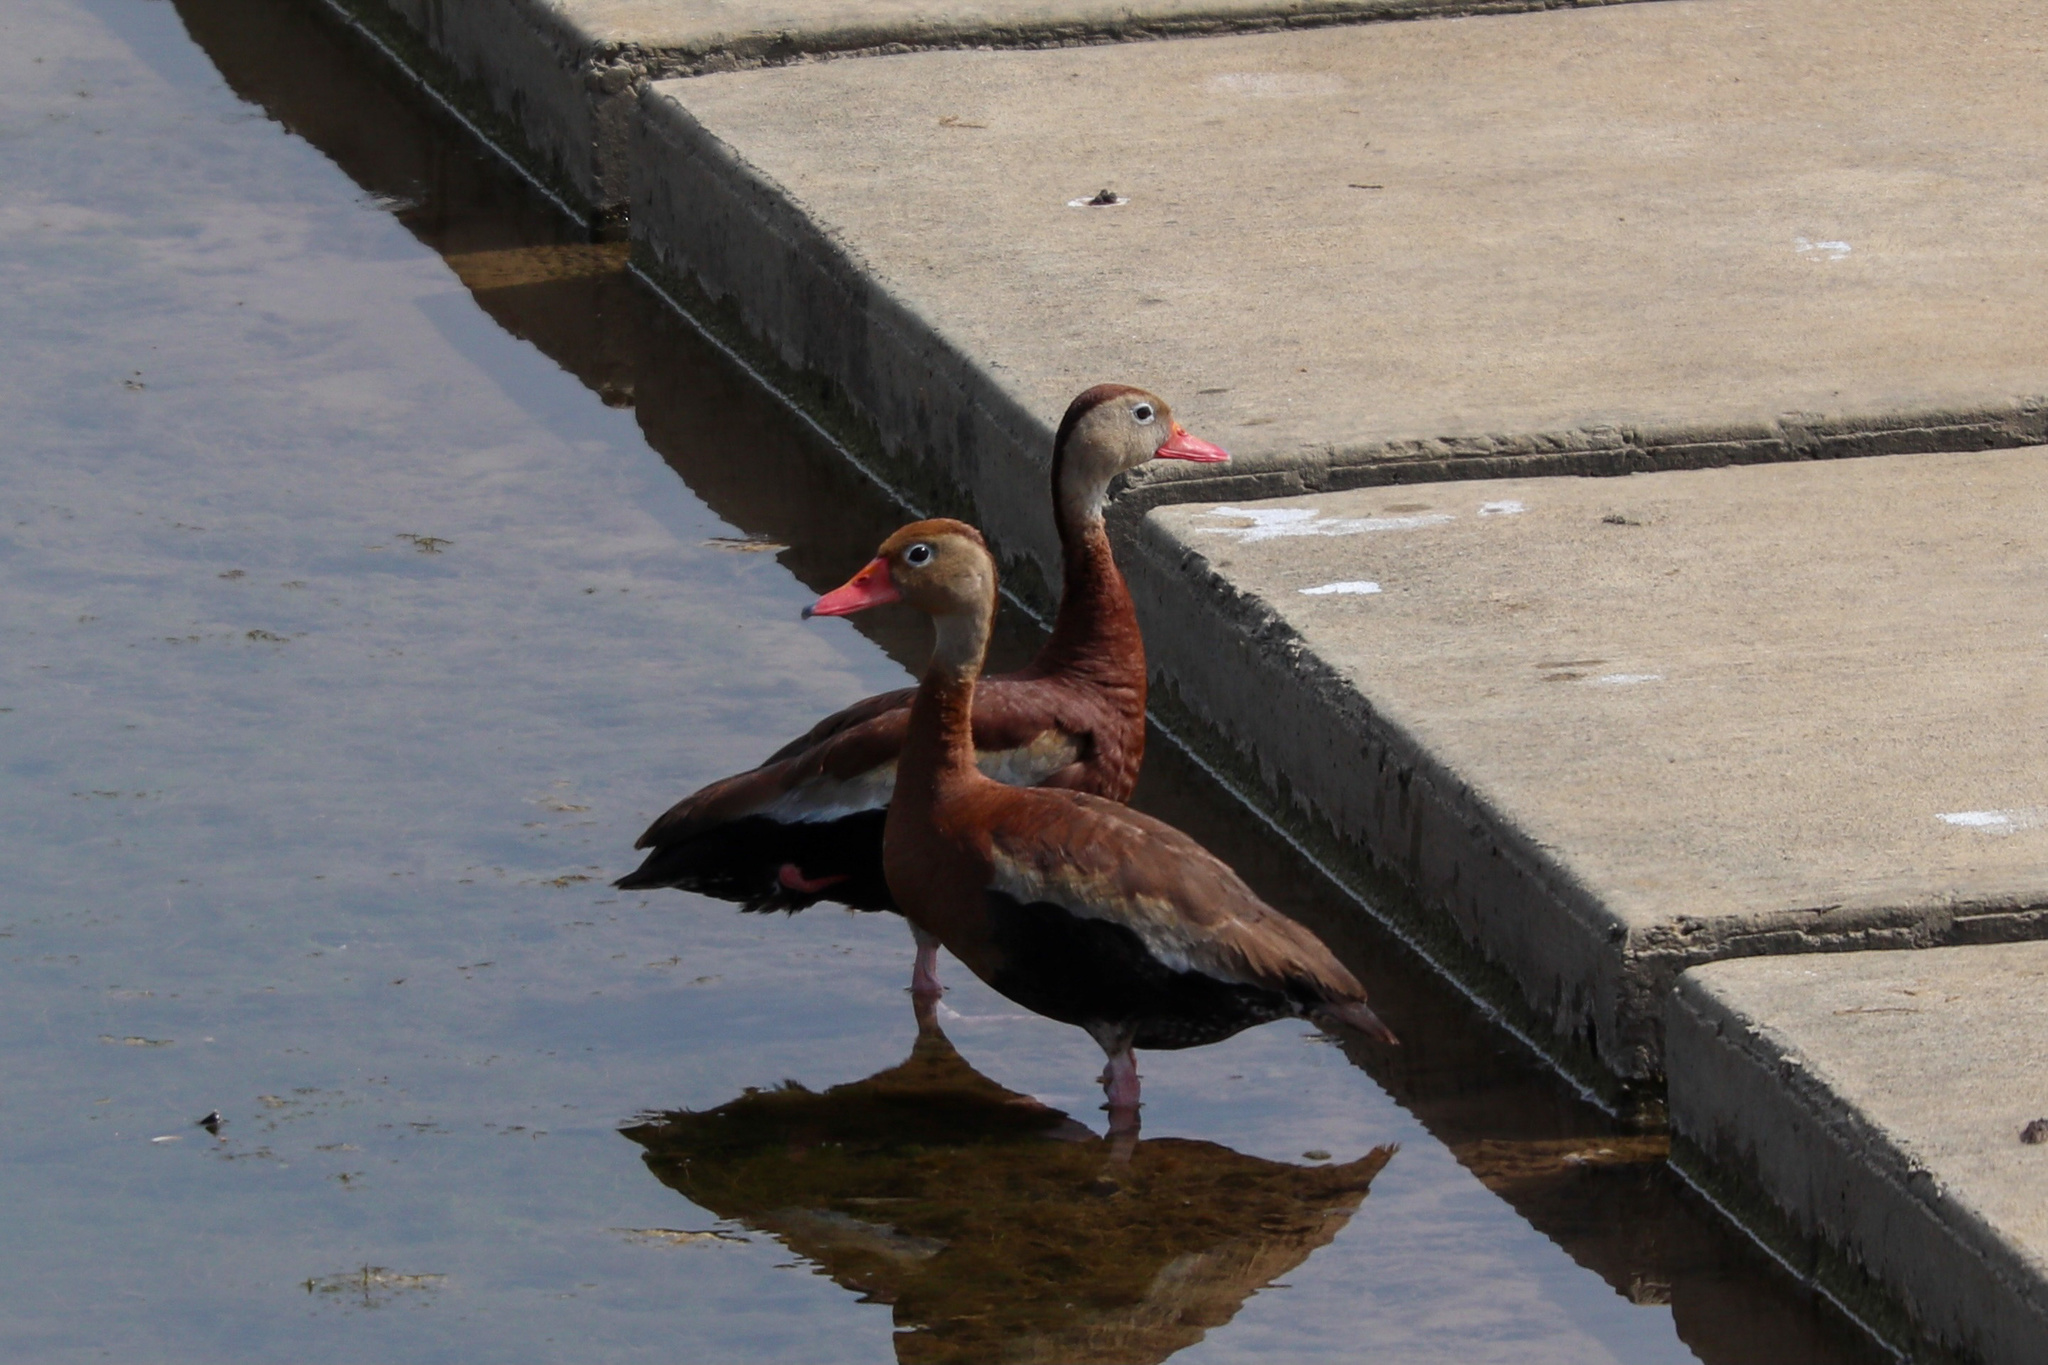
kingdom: Animalia
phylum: Chordata
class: Aves
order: Anseriformes
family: Anatidae
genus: Dendrocygna
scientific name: Dendrocygna autumnalis
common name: Black-bellied whistling duck
